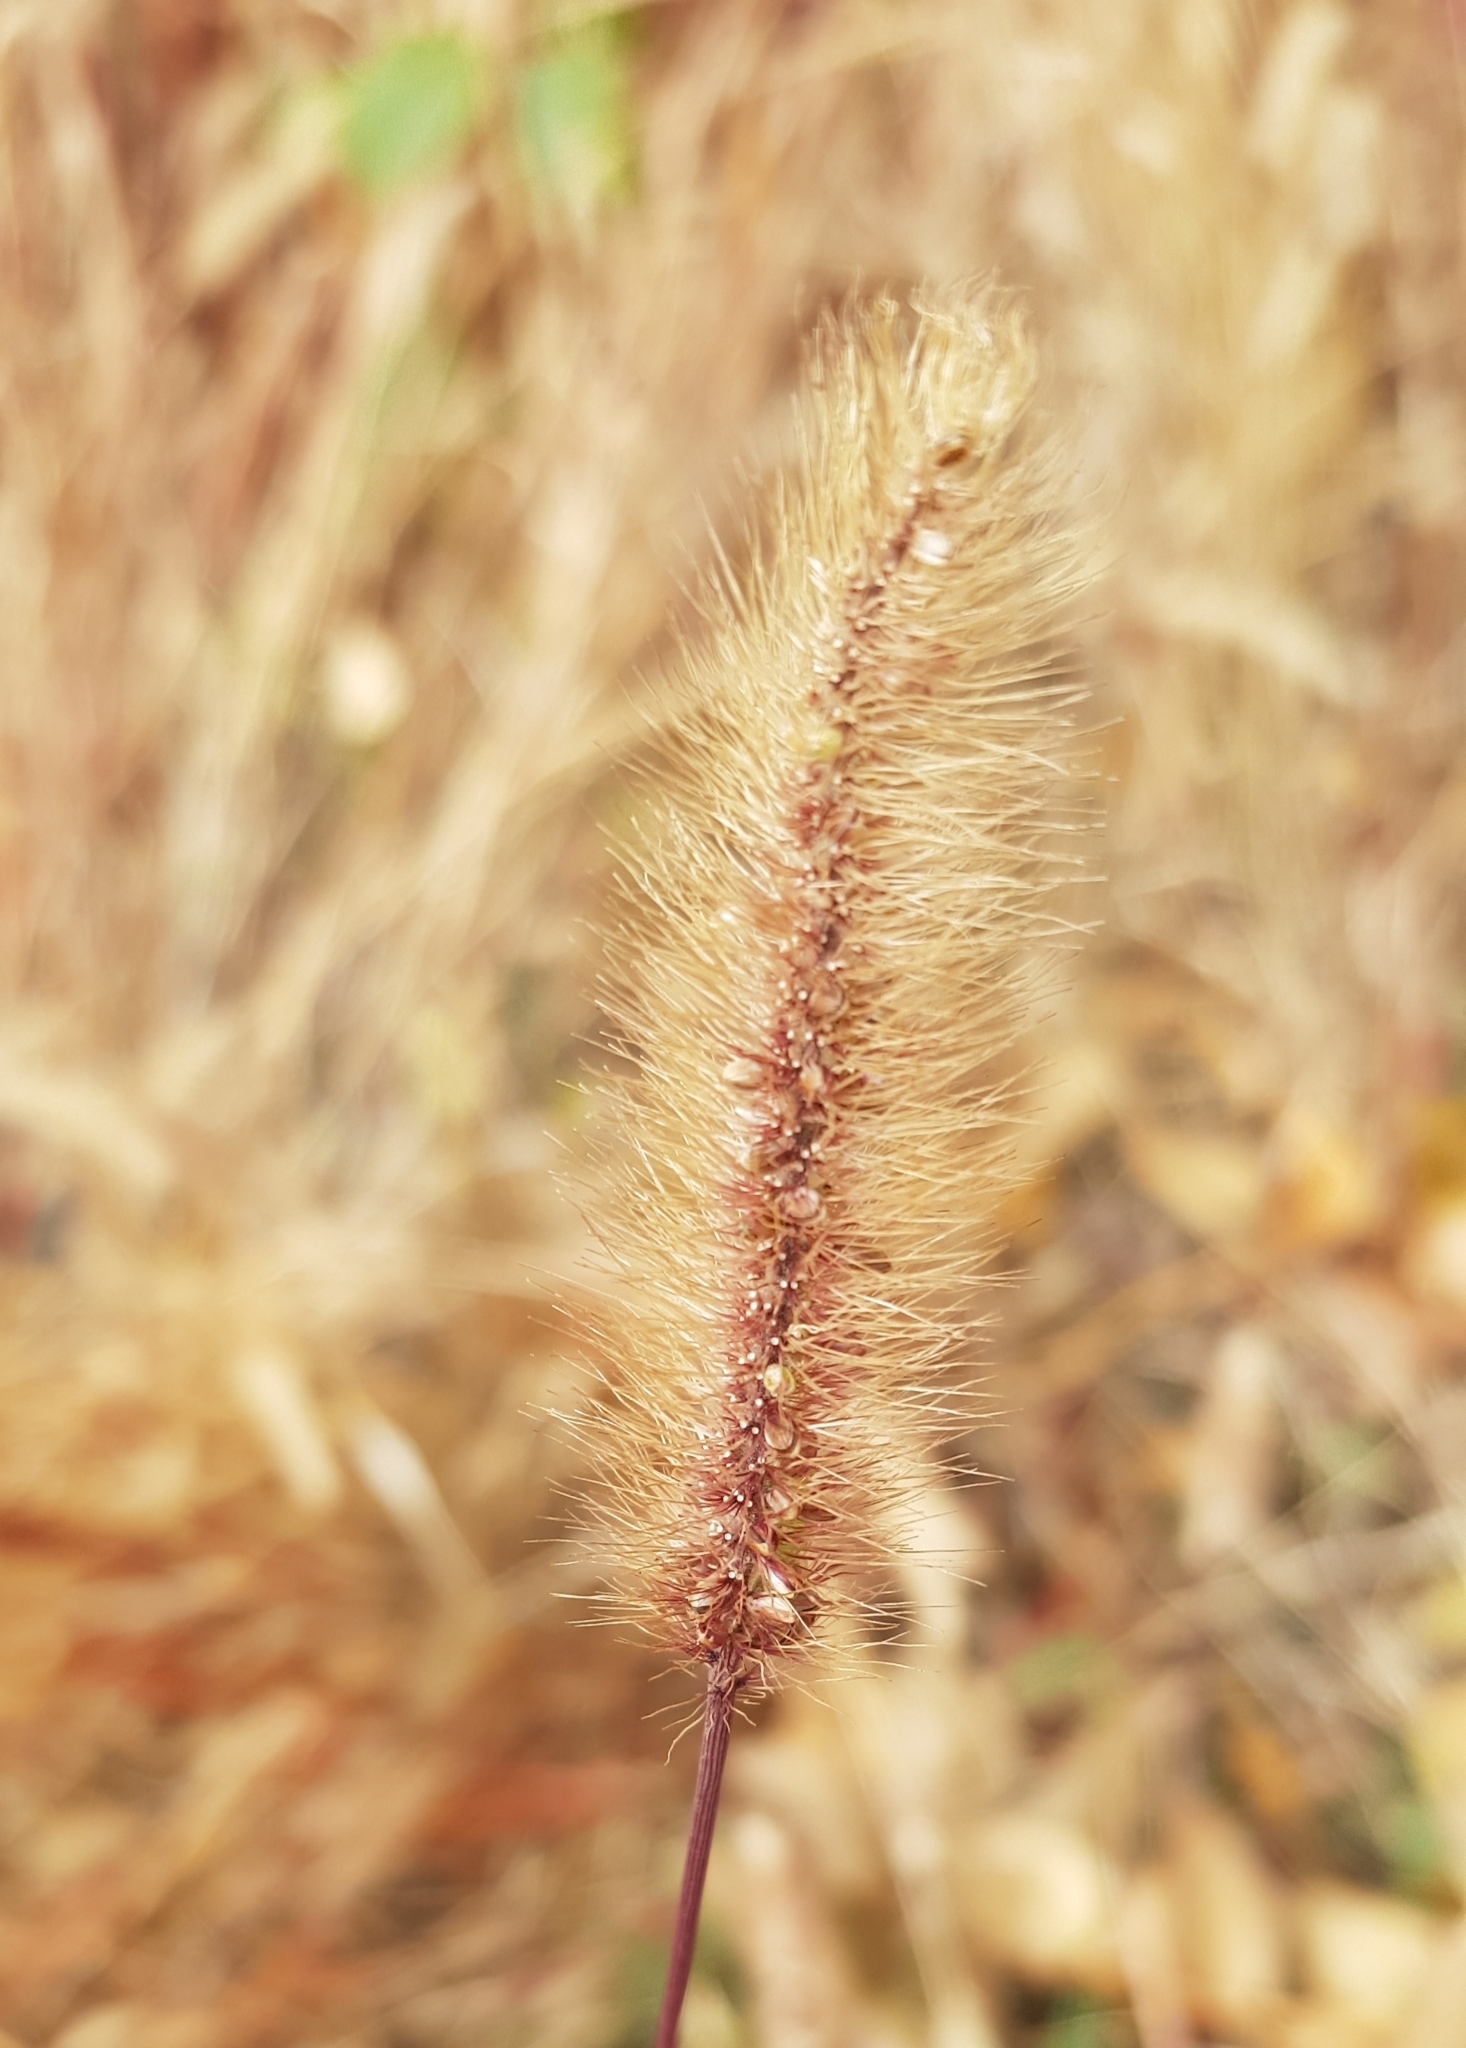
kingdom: Plantae
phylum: Tracheophyta
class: Liliopsida
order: Poales
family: Poaceae
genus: Setaria
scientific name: Setaria viridis
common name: Green bristlegrass
